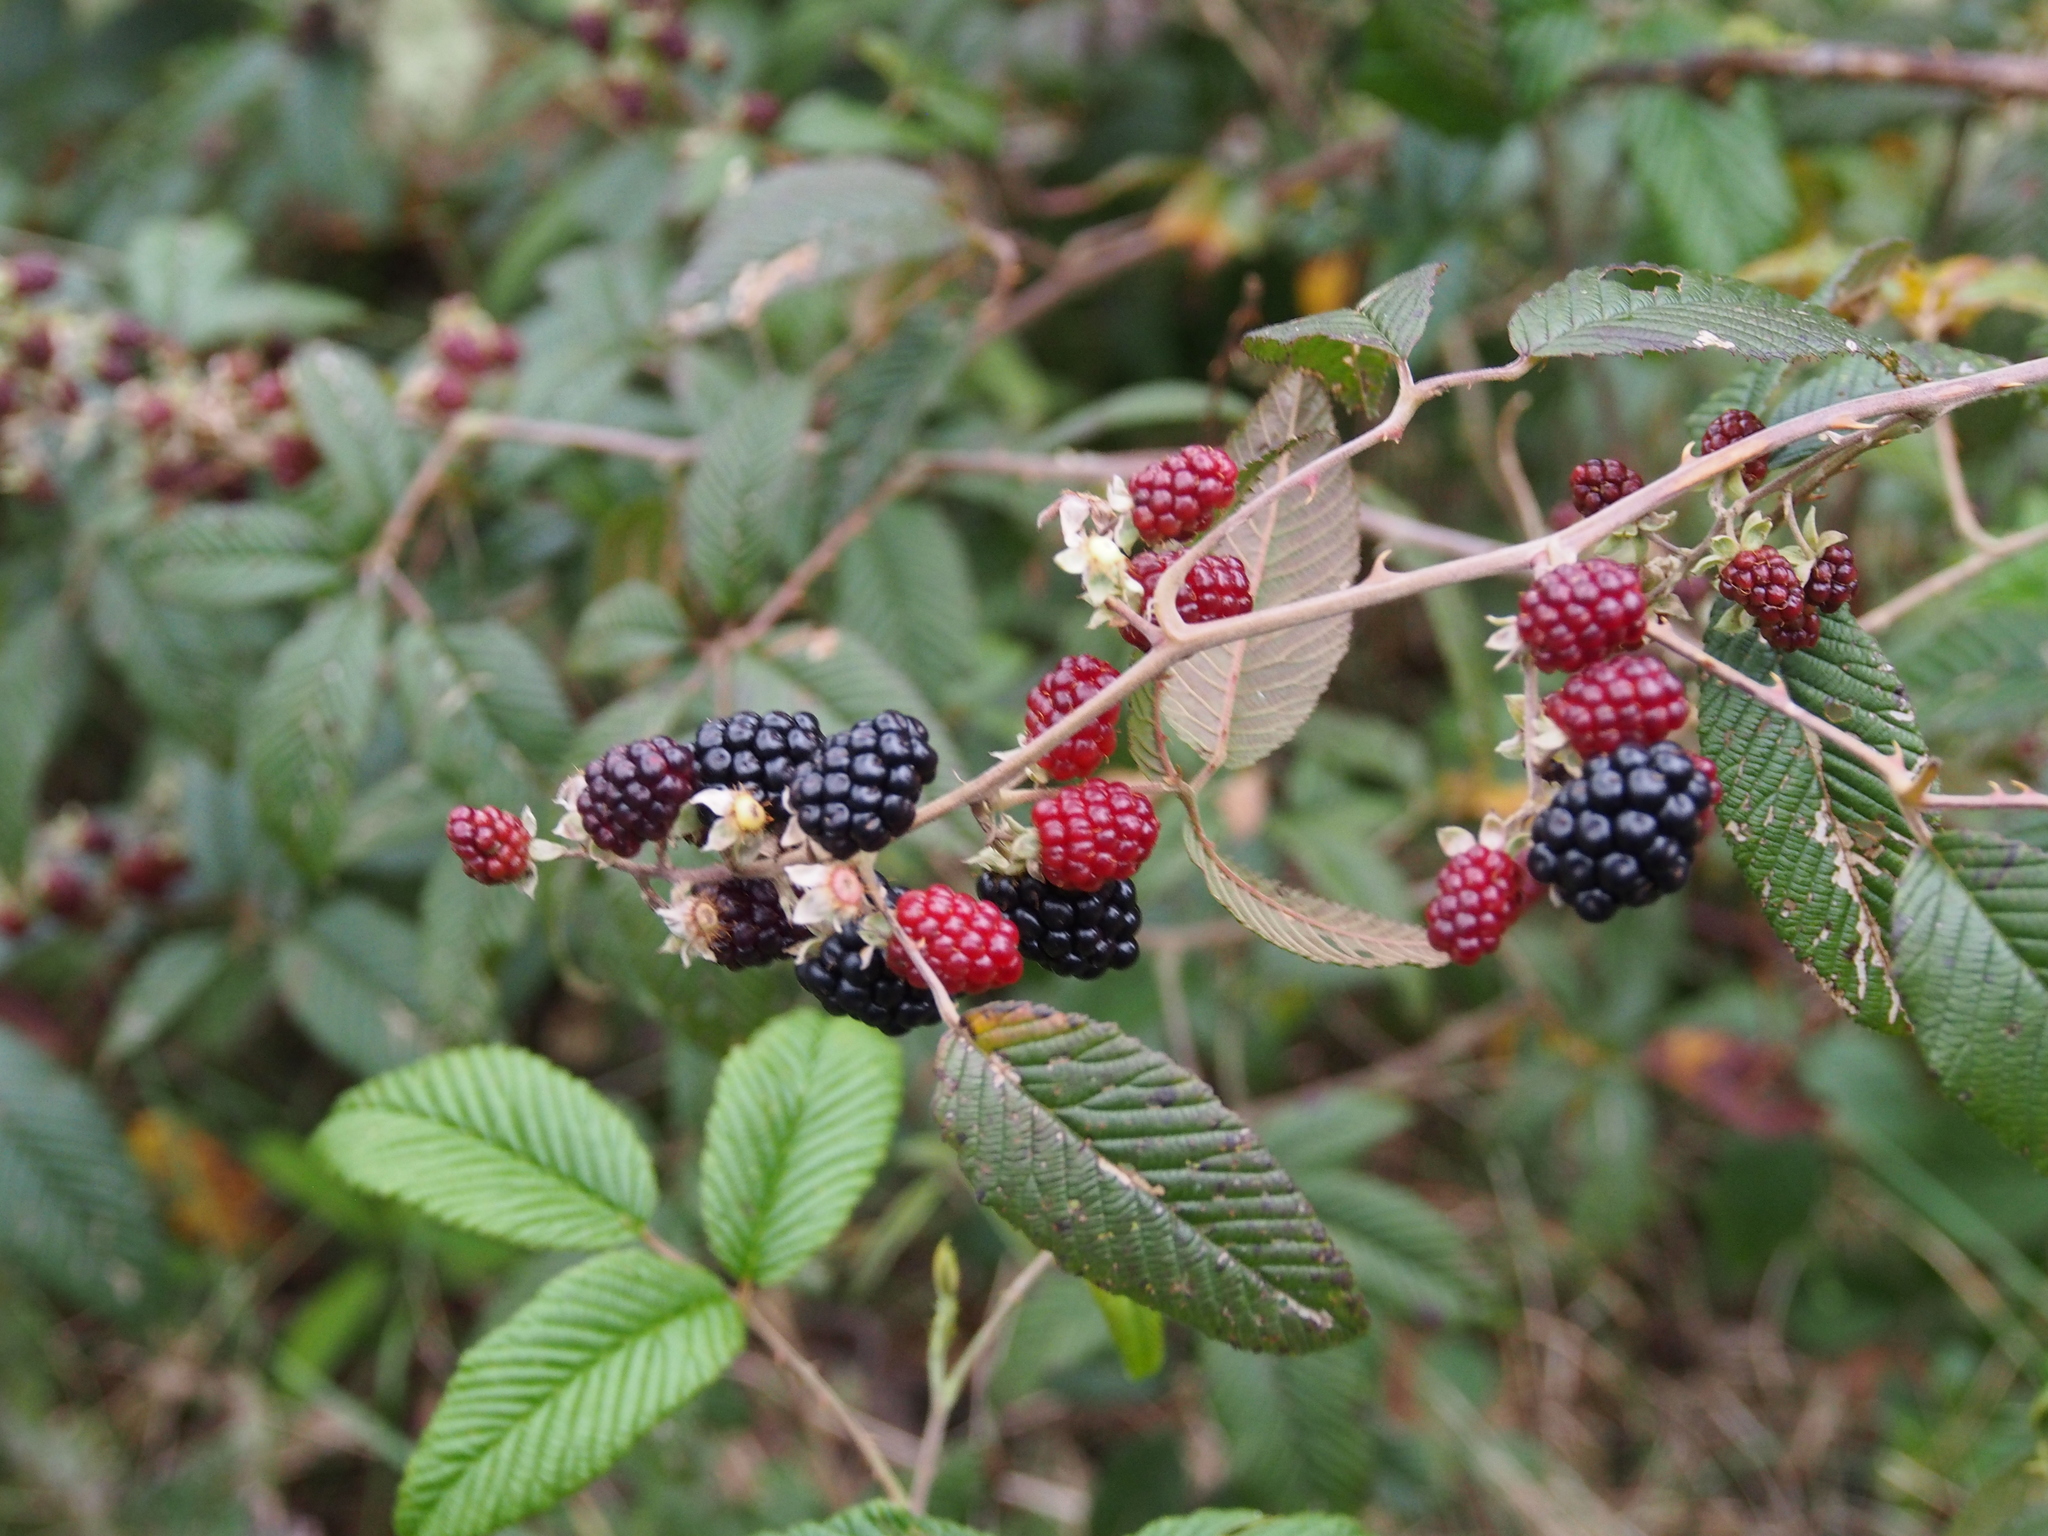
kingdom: Plantae
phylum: Tracheophyta
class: Magnoliopsida
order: Rosales
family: Rosaceae
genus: Rubus
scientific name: Rubus glaucus
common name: Andean blackberry
